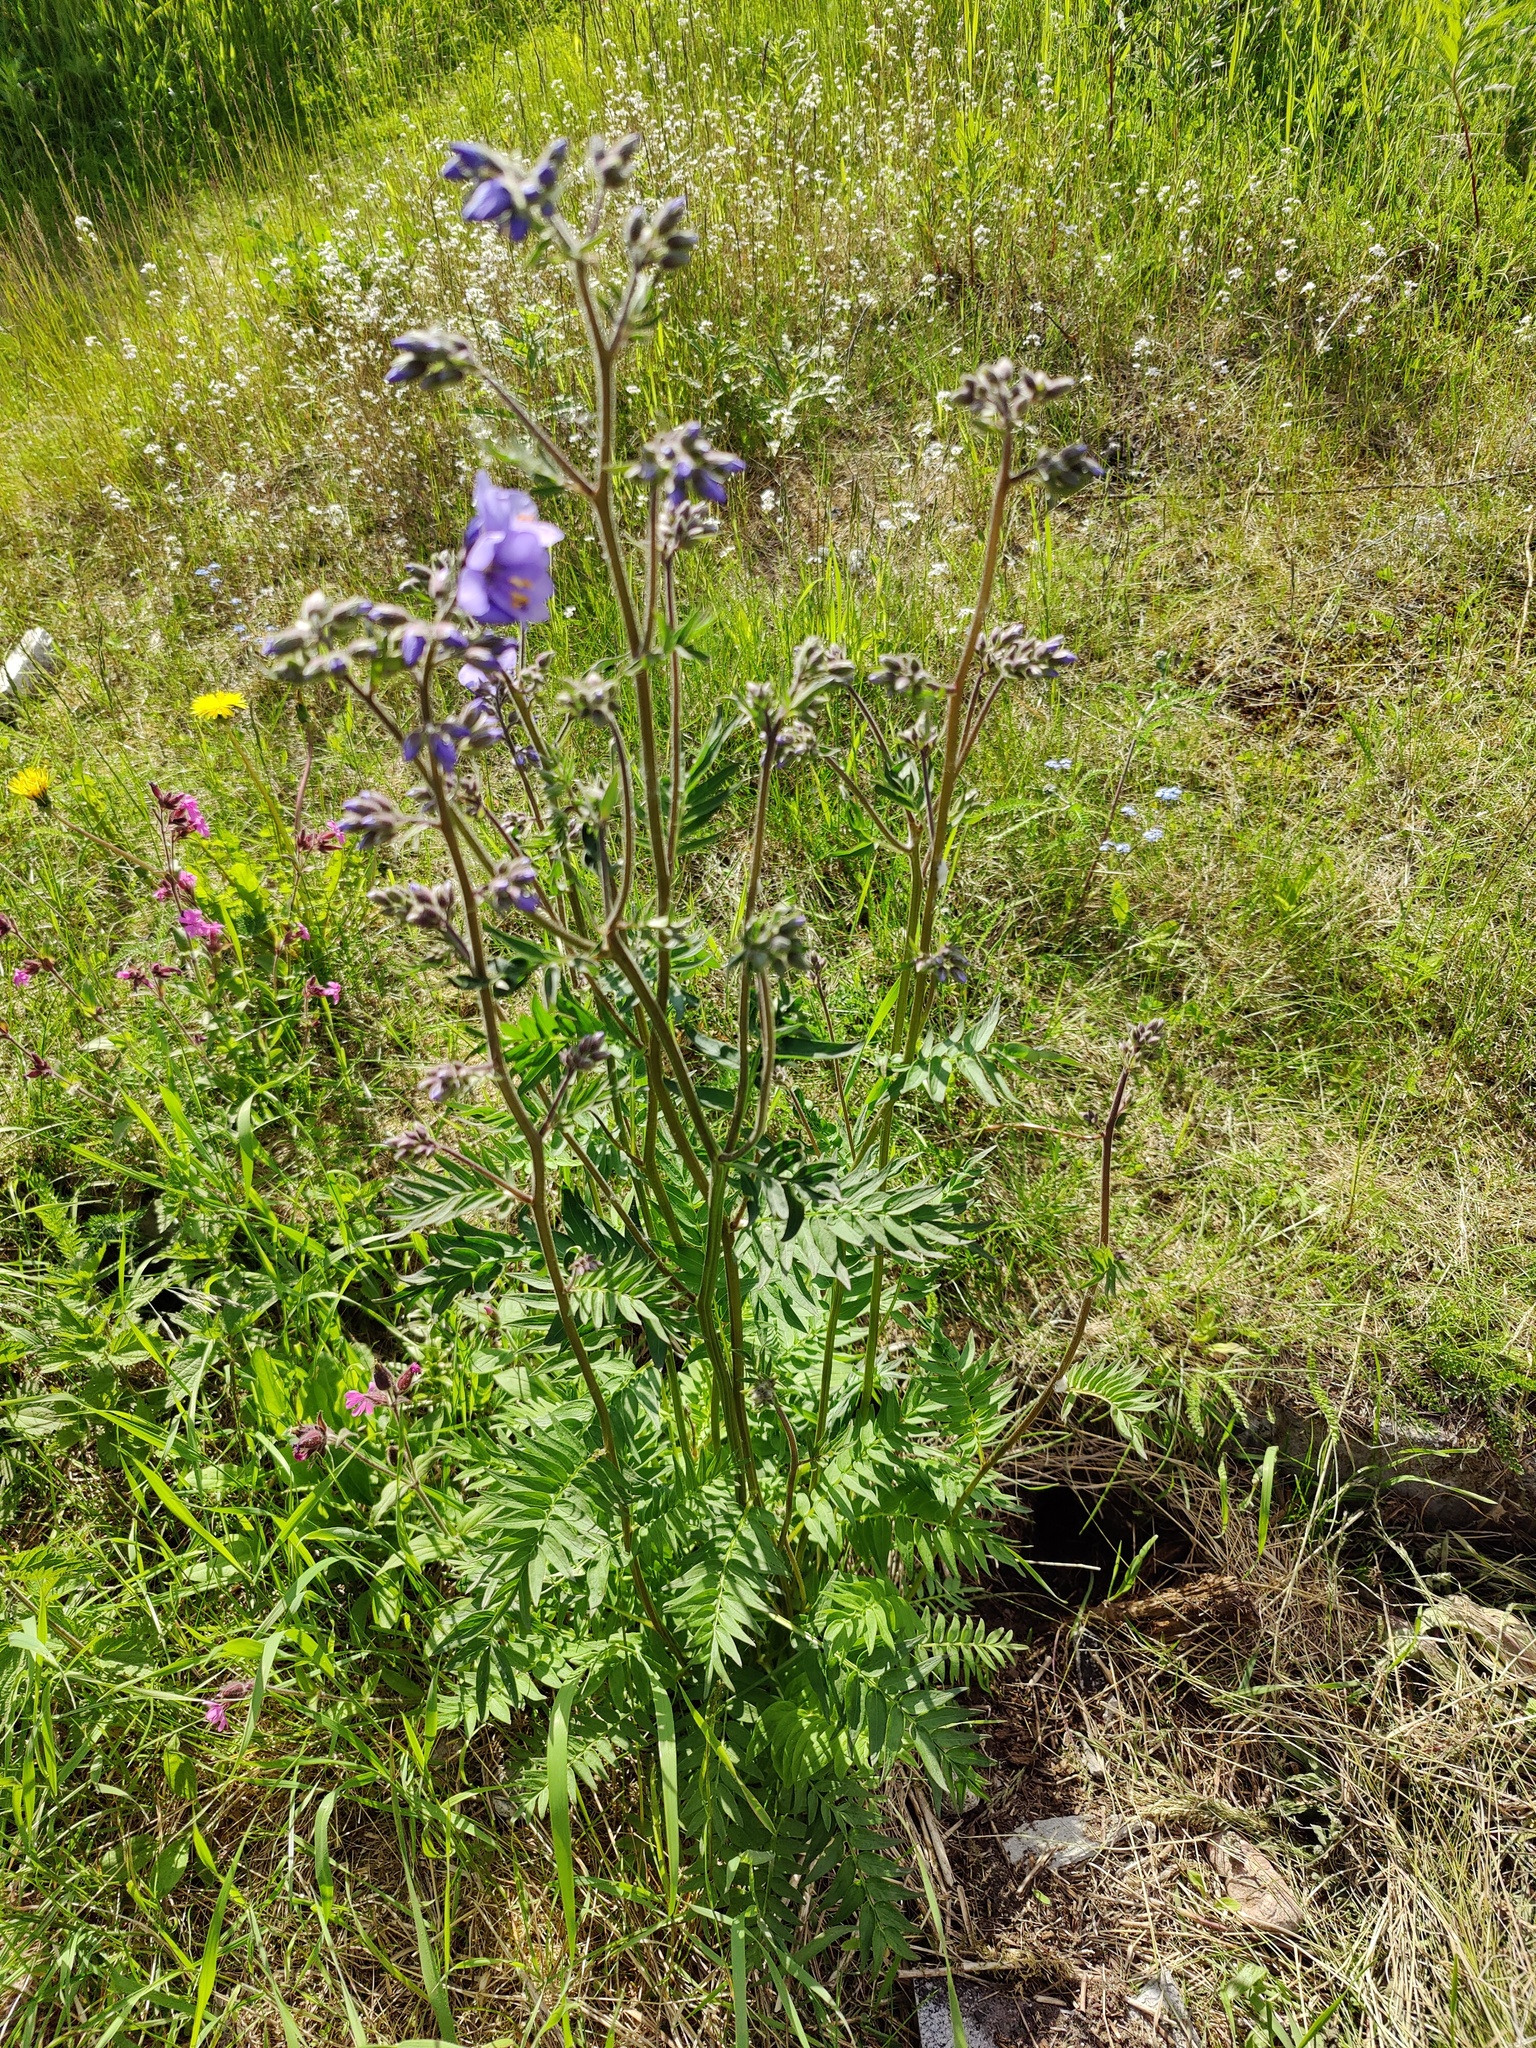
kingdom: Plantae
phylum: Tracheophyta
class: Magnoliopsida
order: Ericales
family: Polemoniaceae
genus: Polemonium
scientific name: Polemonium caeruleum
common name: Jacob's-ladder
